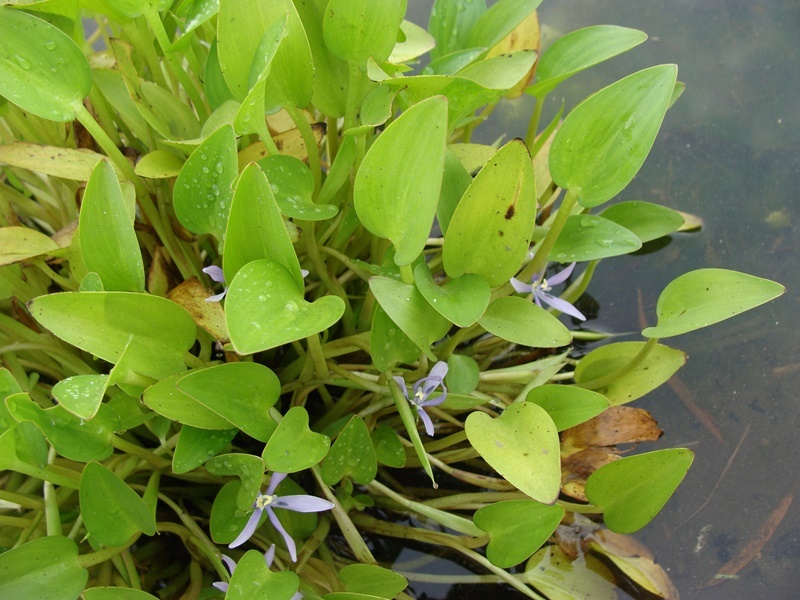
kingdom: Plantae
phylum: Tracheophyta
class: Liliopsida
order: Commelinales
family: Pontederiaceae
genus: Heteranthera
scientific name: Heteranthera limosa
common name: Blue mud-plantain
